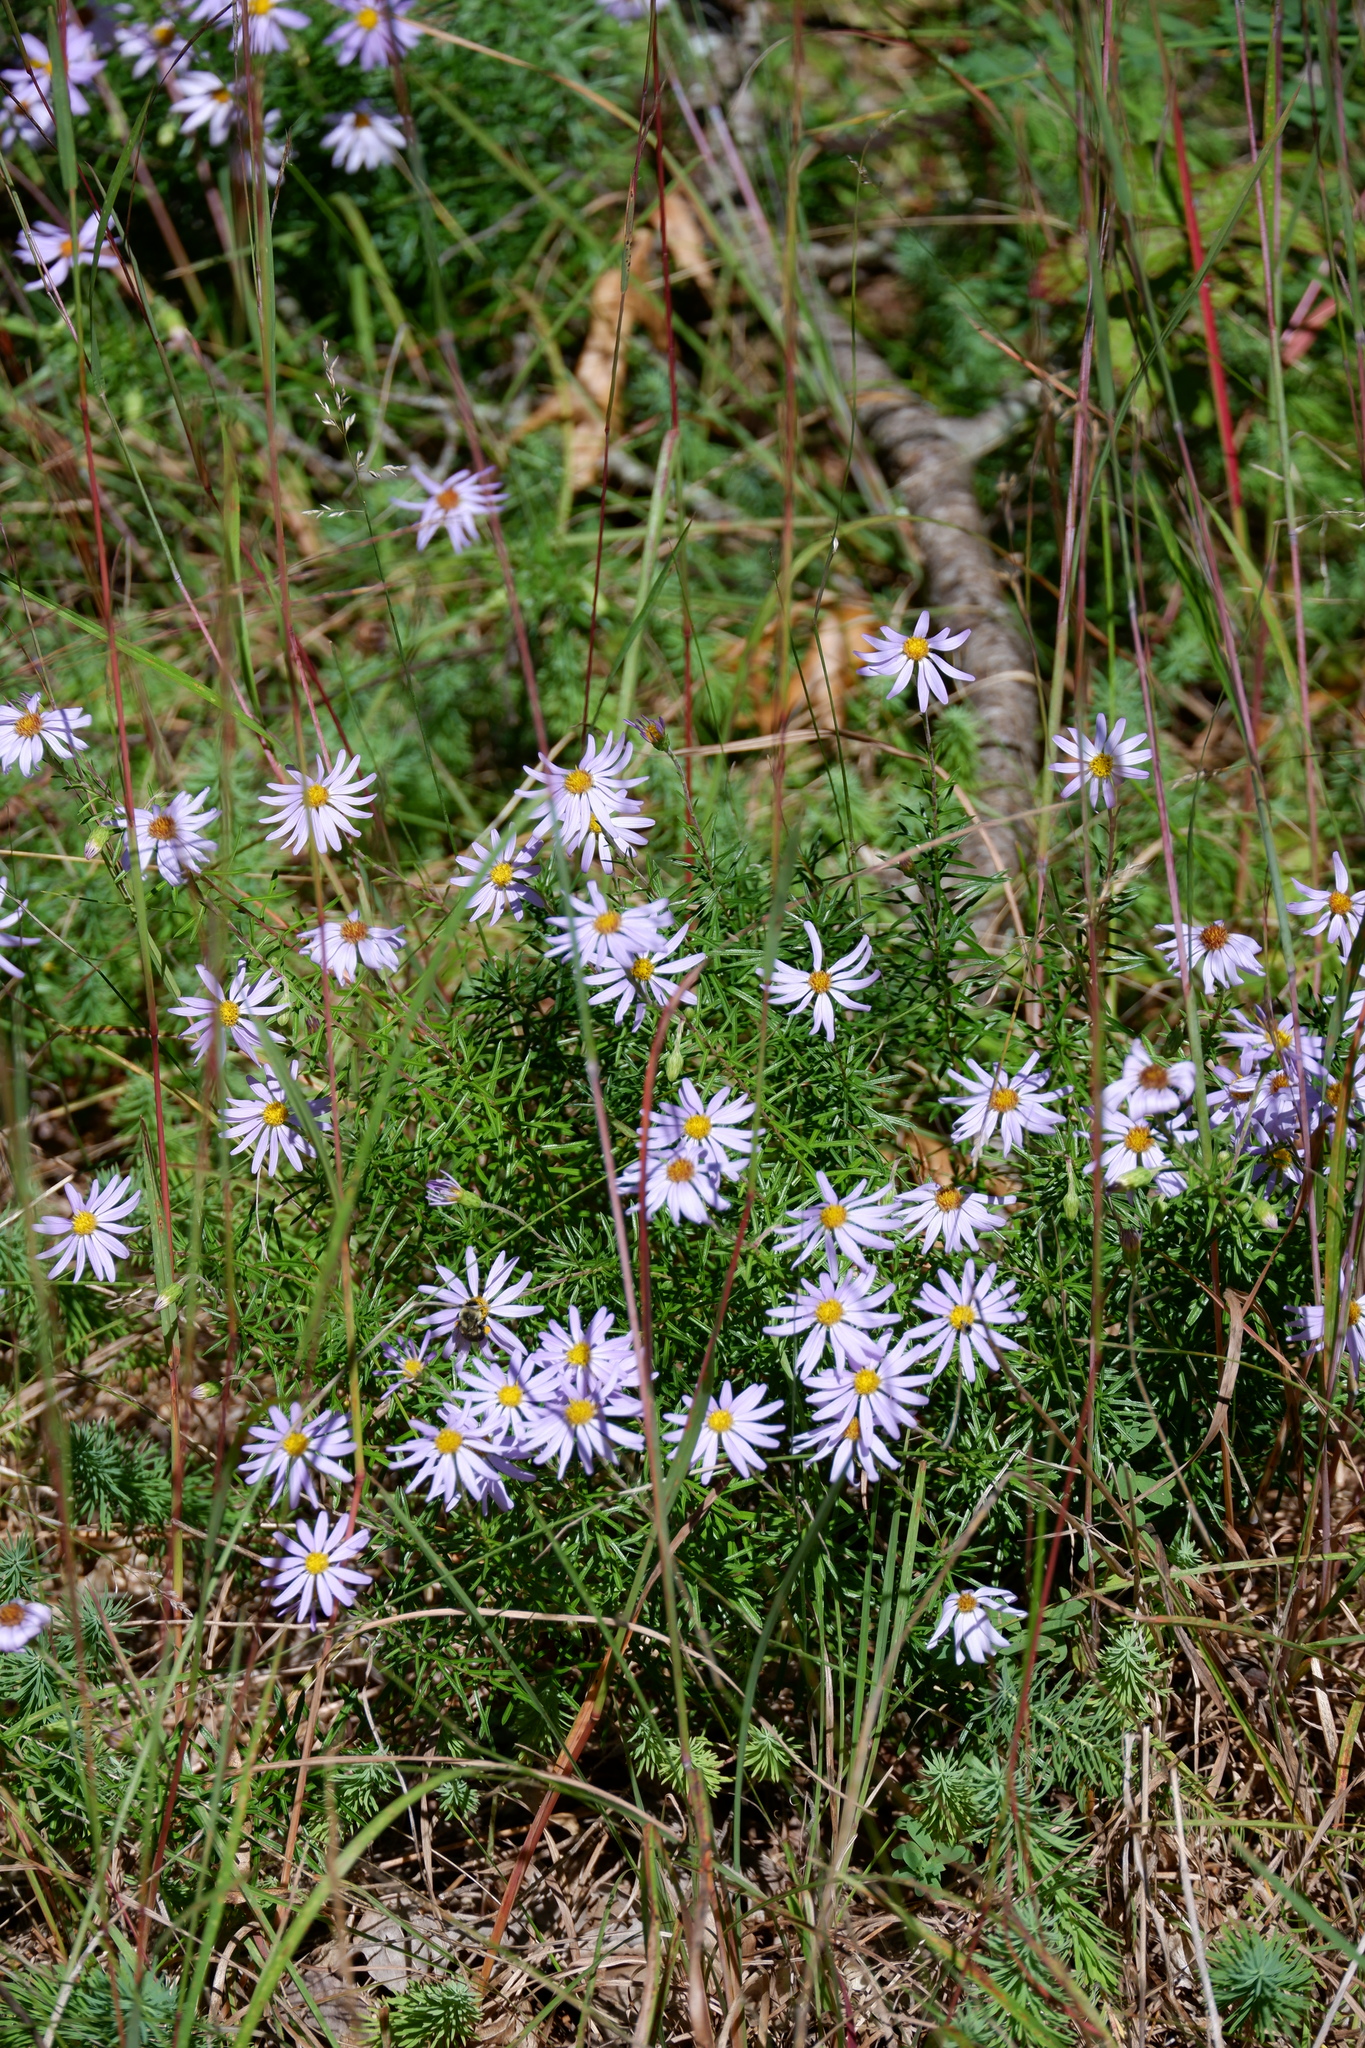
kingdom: Plantae
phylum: Tracheophyta
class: Magnoliopsida
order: Asterales
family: Asteraceae
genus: Ionactis
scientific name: Ionactis linariifolia
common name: Flax-leaf aster
